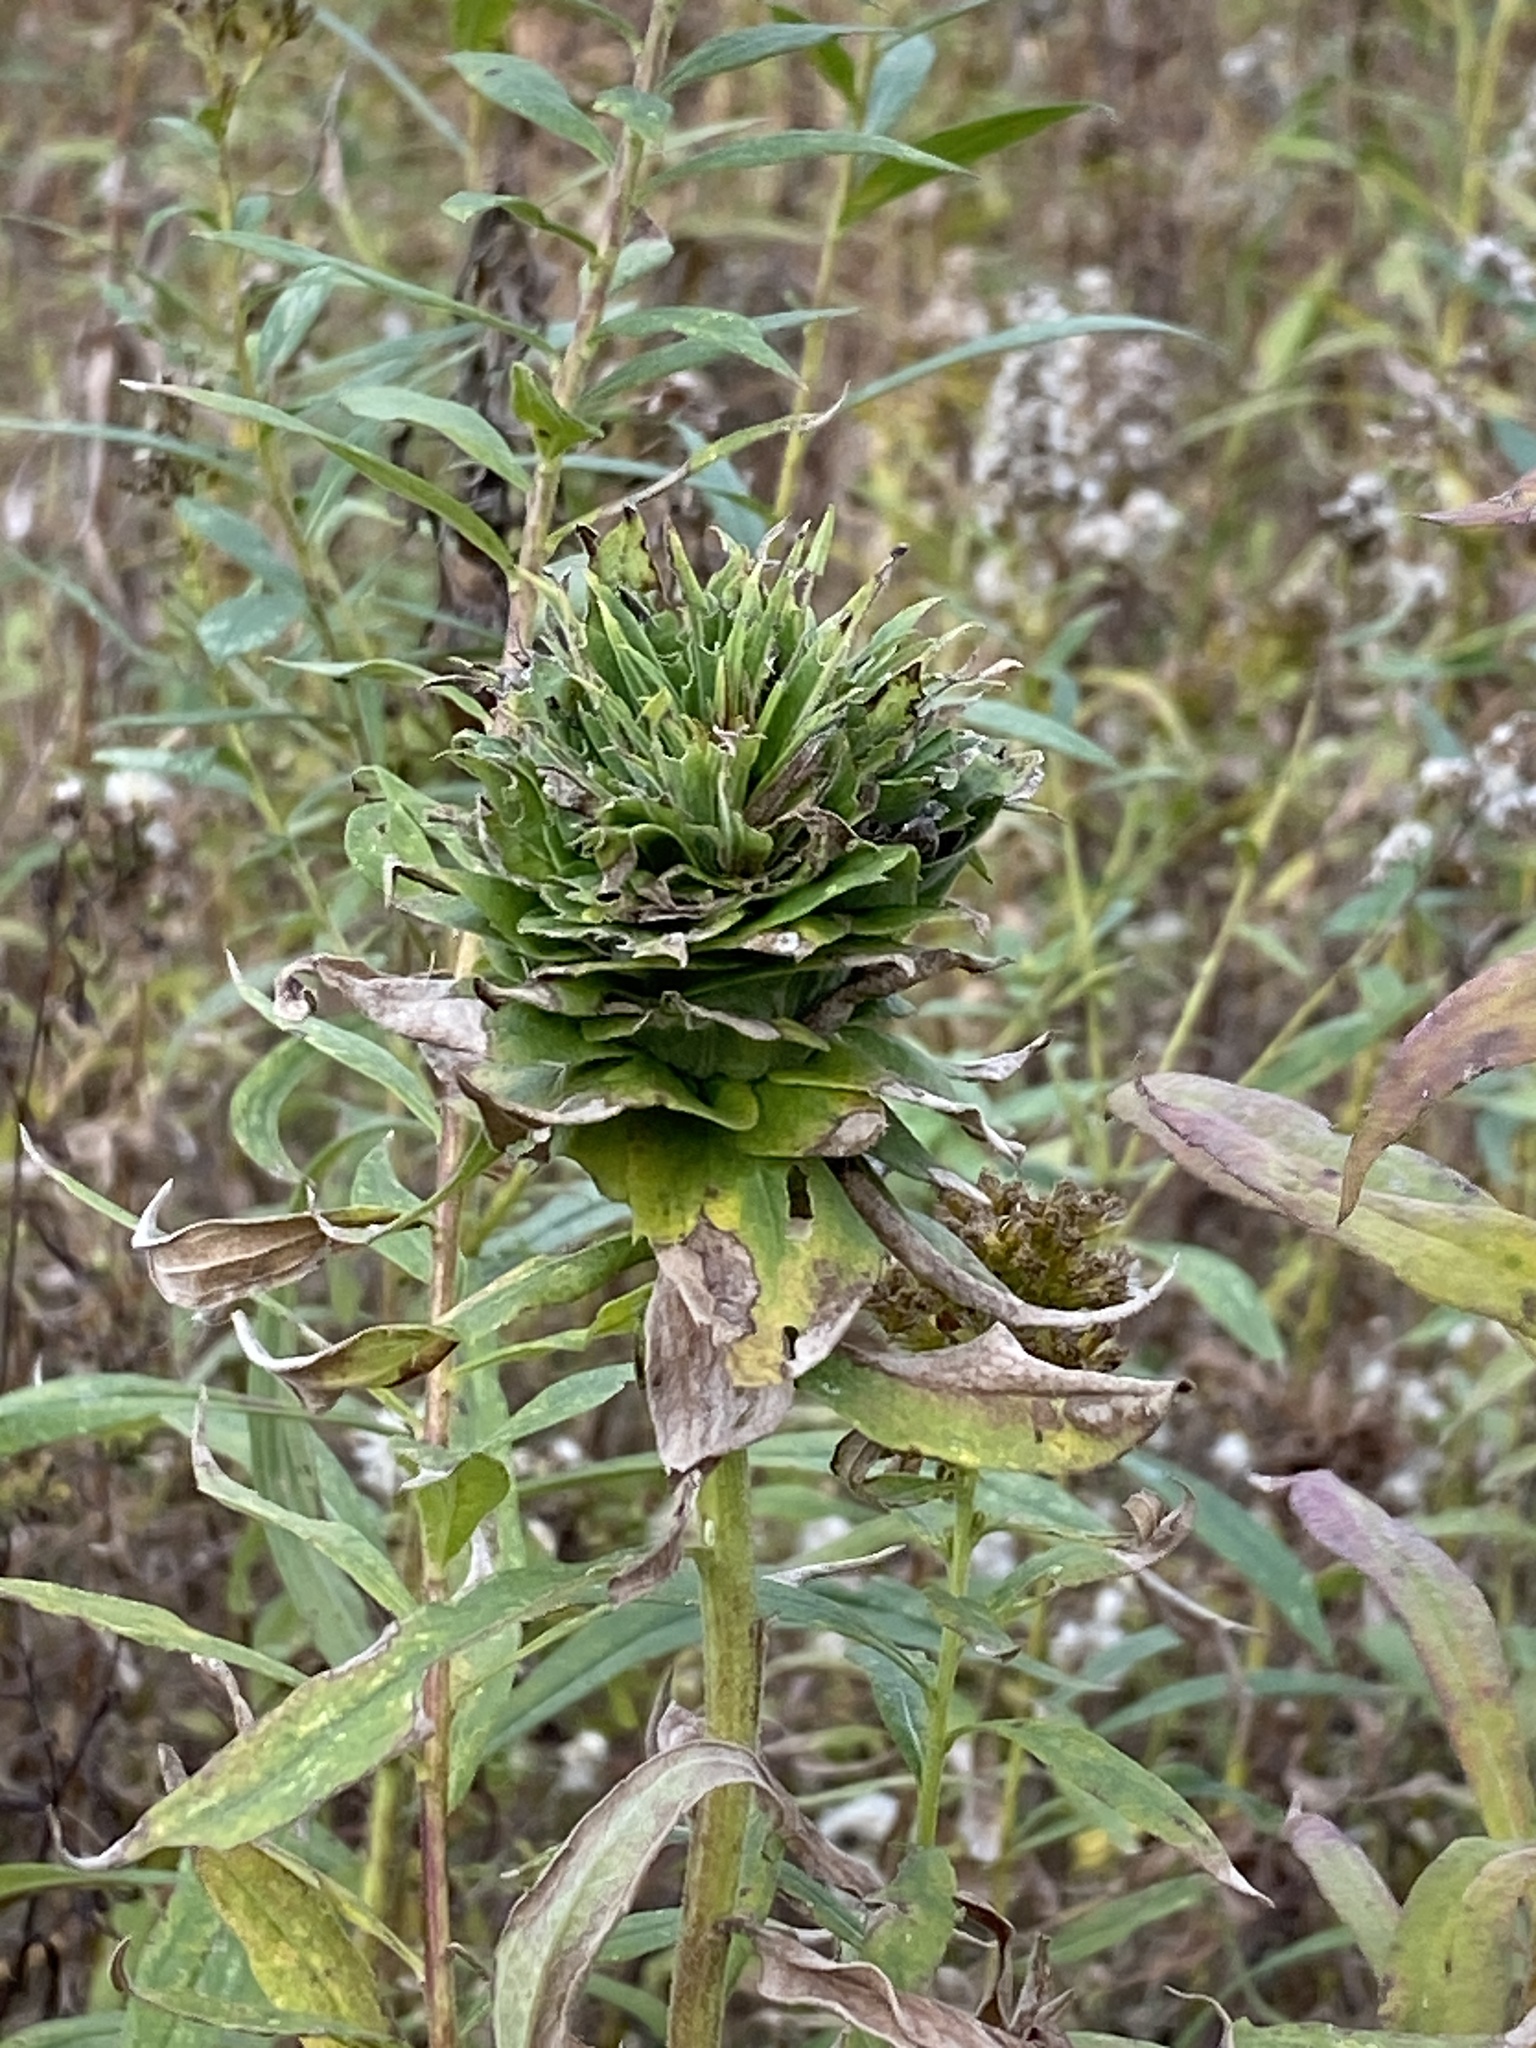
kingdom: Animalia
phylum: Arthropoda
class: Insecta
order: Diptera
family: Cecidomyiidae
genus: Rhopalomyia
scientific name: Rhopalomyia solidaginis
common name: Goldenrod bunch gall midge
